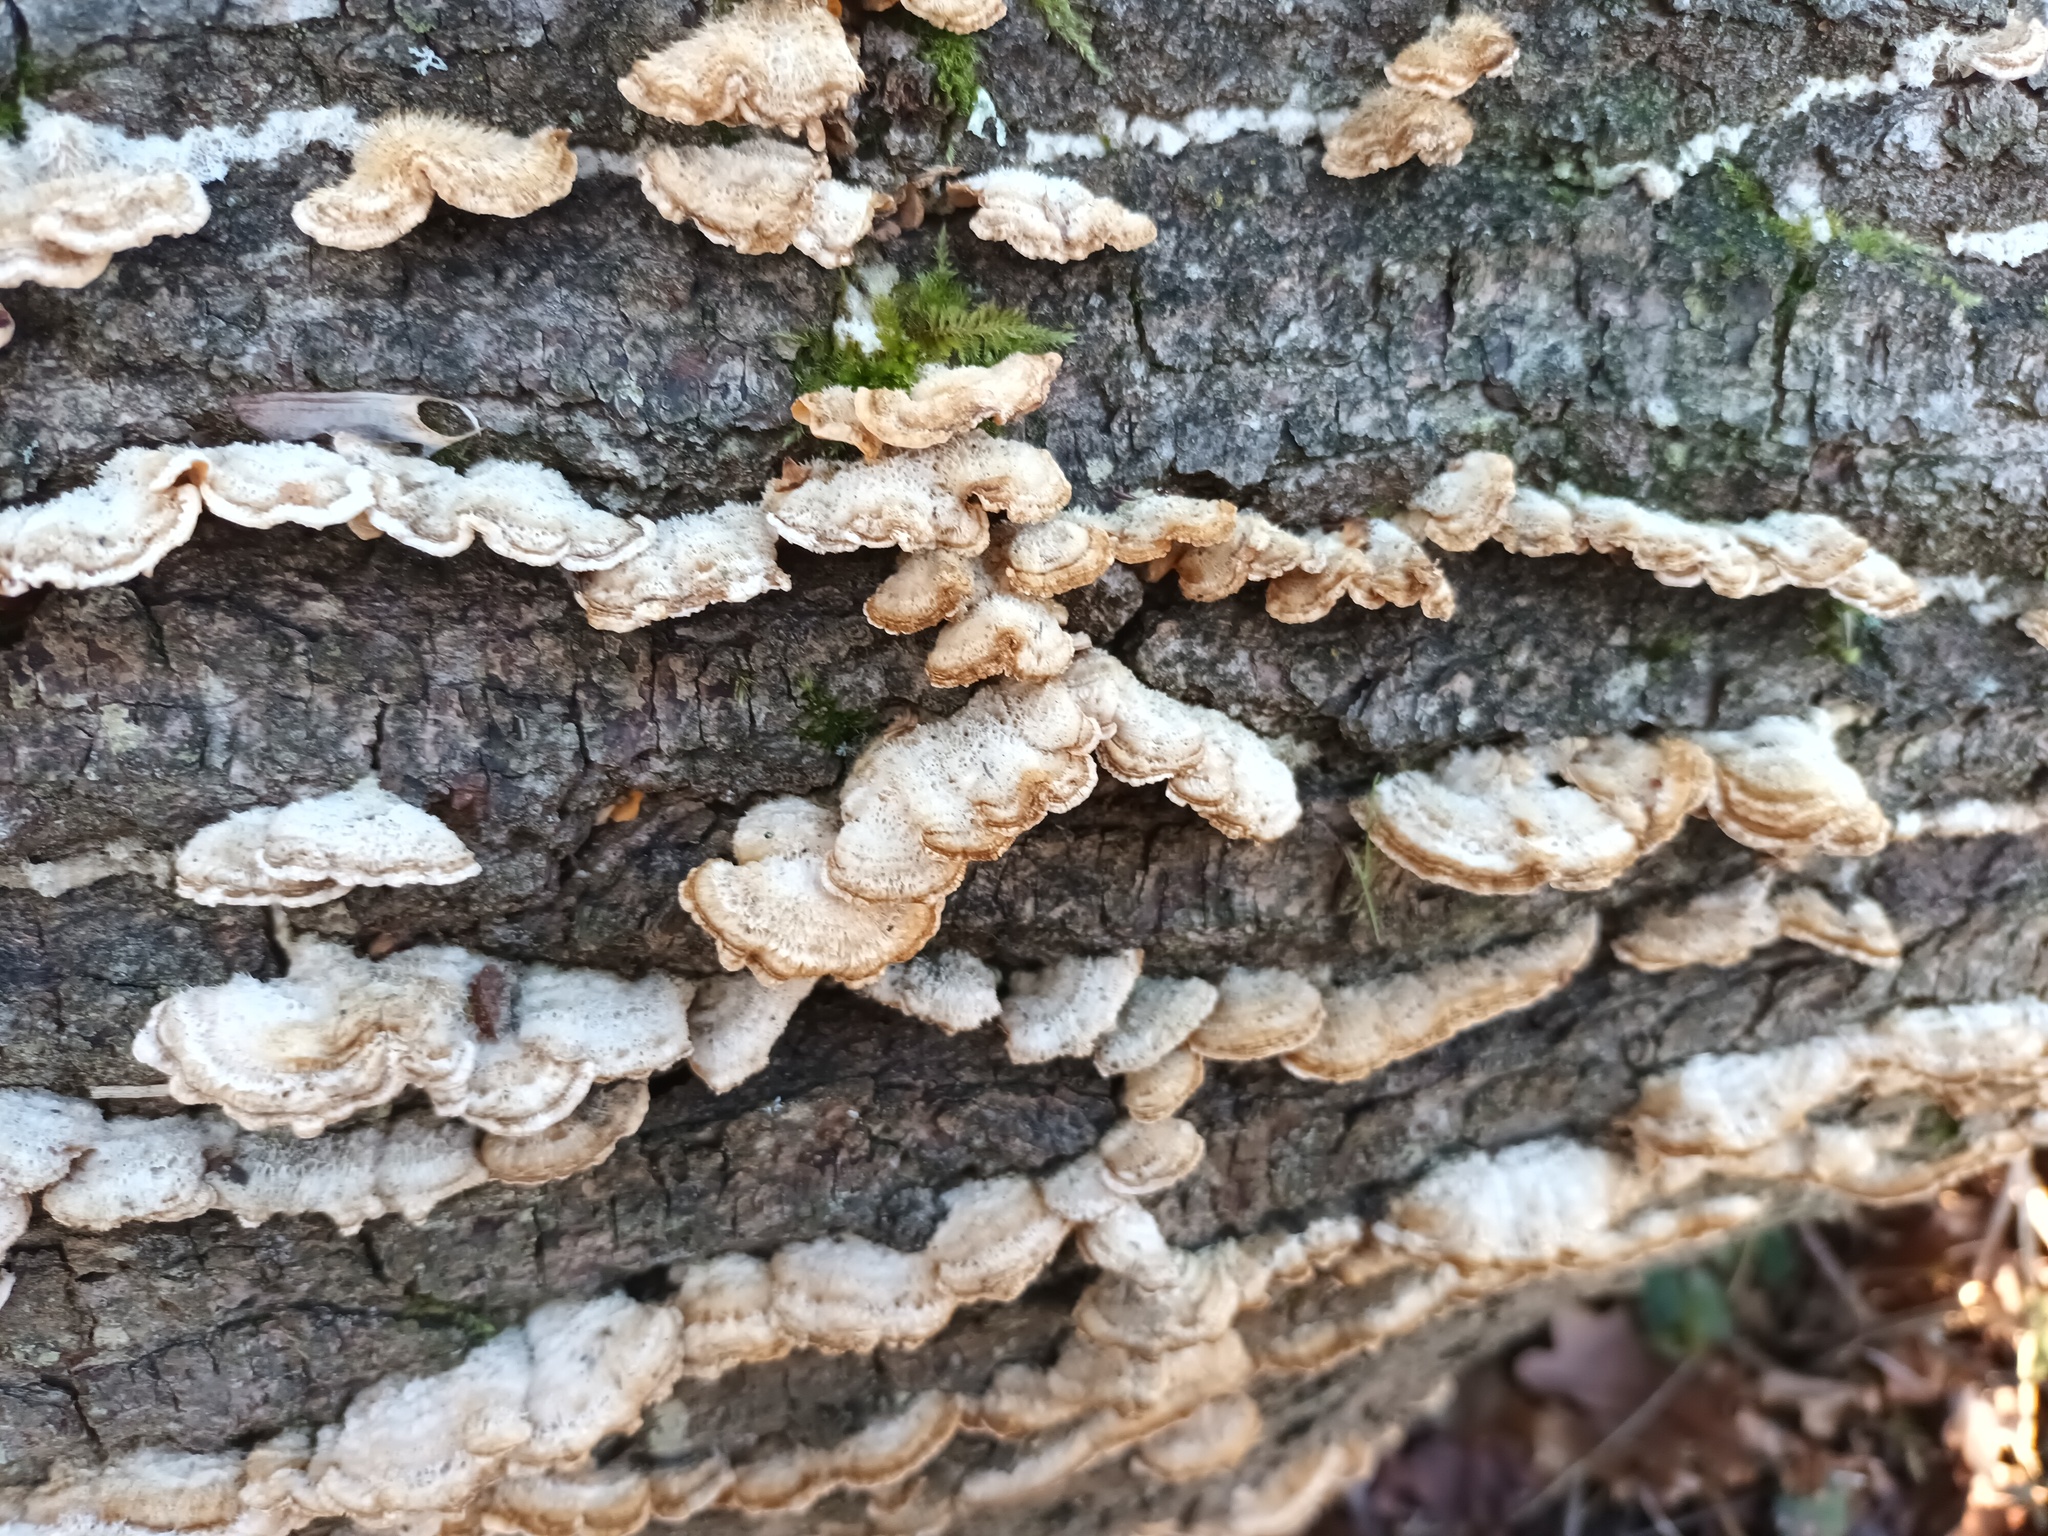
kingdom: Fungi
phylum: Basidiomycota
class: Agaricomycetes
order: Russulales
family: Stereaceae
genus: Stereum
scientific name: Stereum hirsutum
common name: Hairy curtain crust
